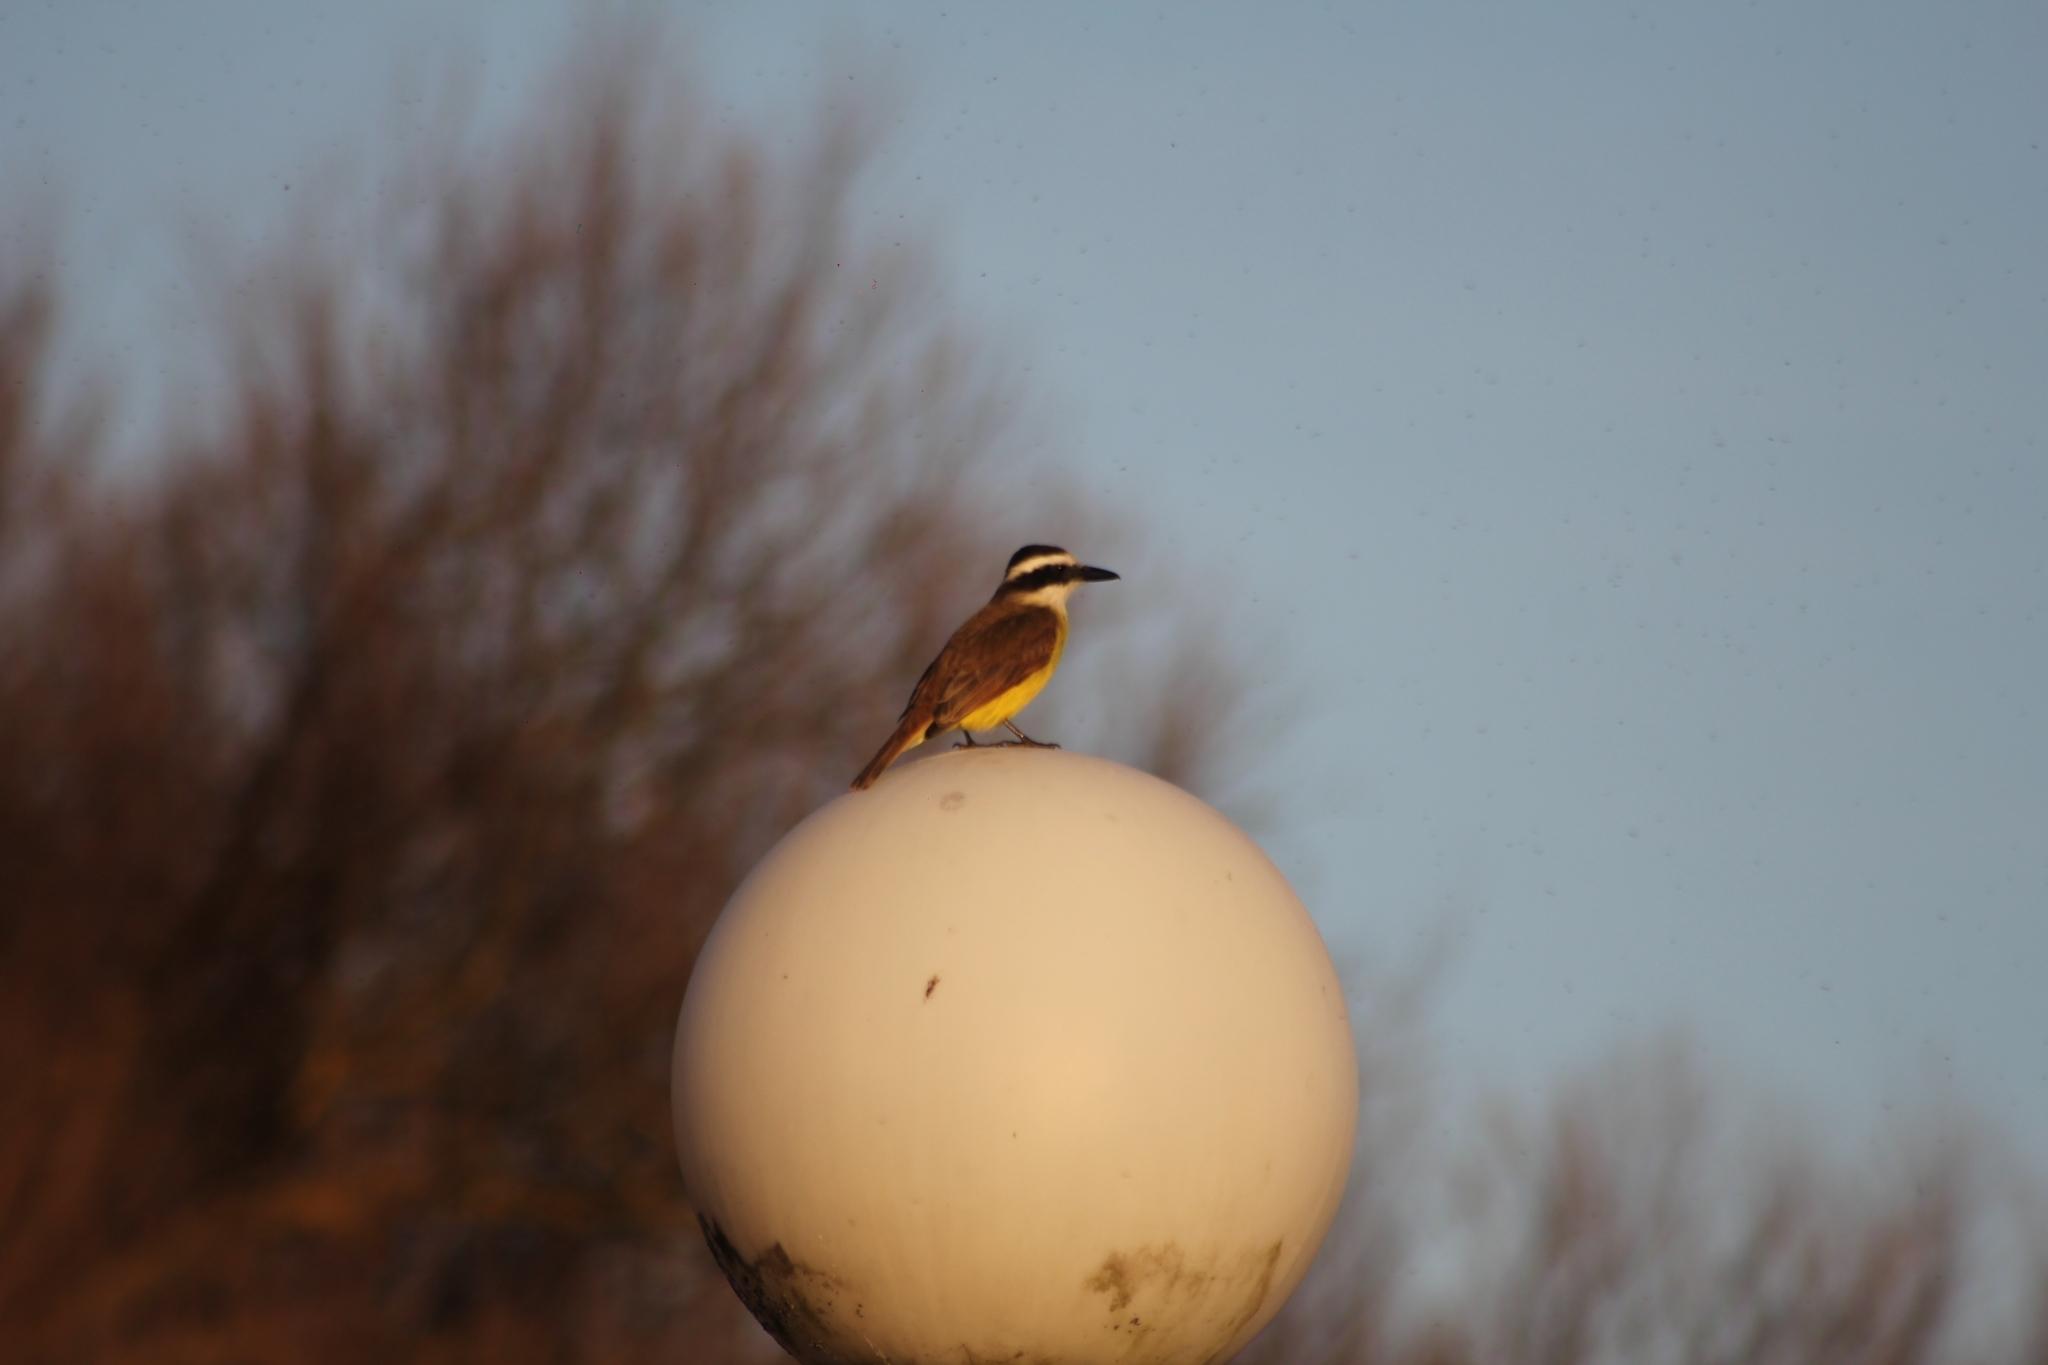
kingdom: Animalia
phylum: Chordata
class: Aves
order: Passeriformes
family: Tyrannidae
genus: Pitangus
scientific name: Pitangus sulphuratus
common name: Great kiskadee
